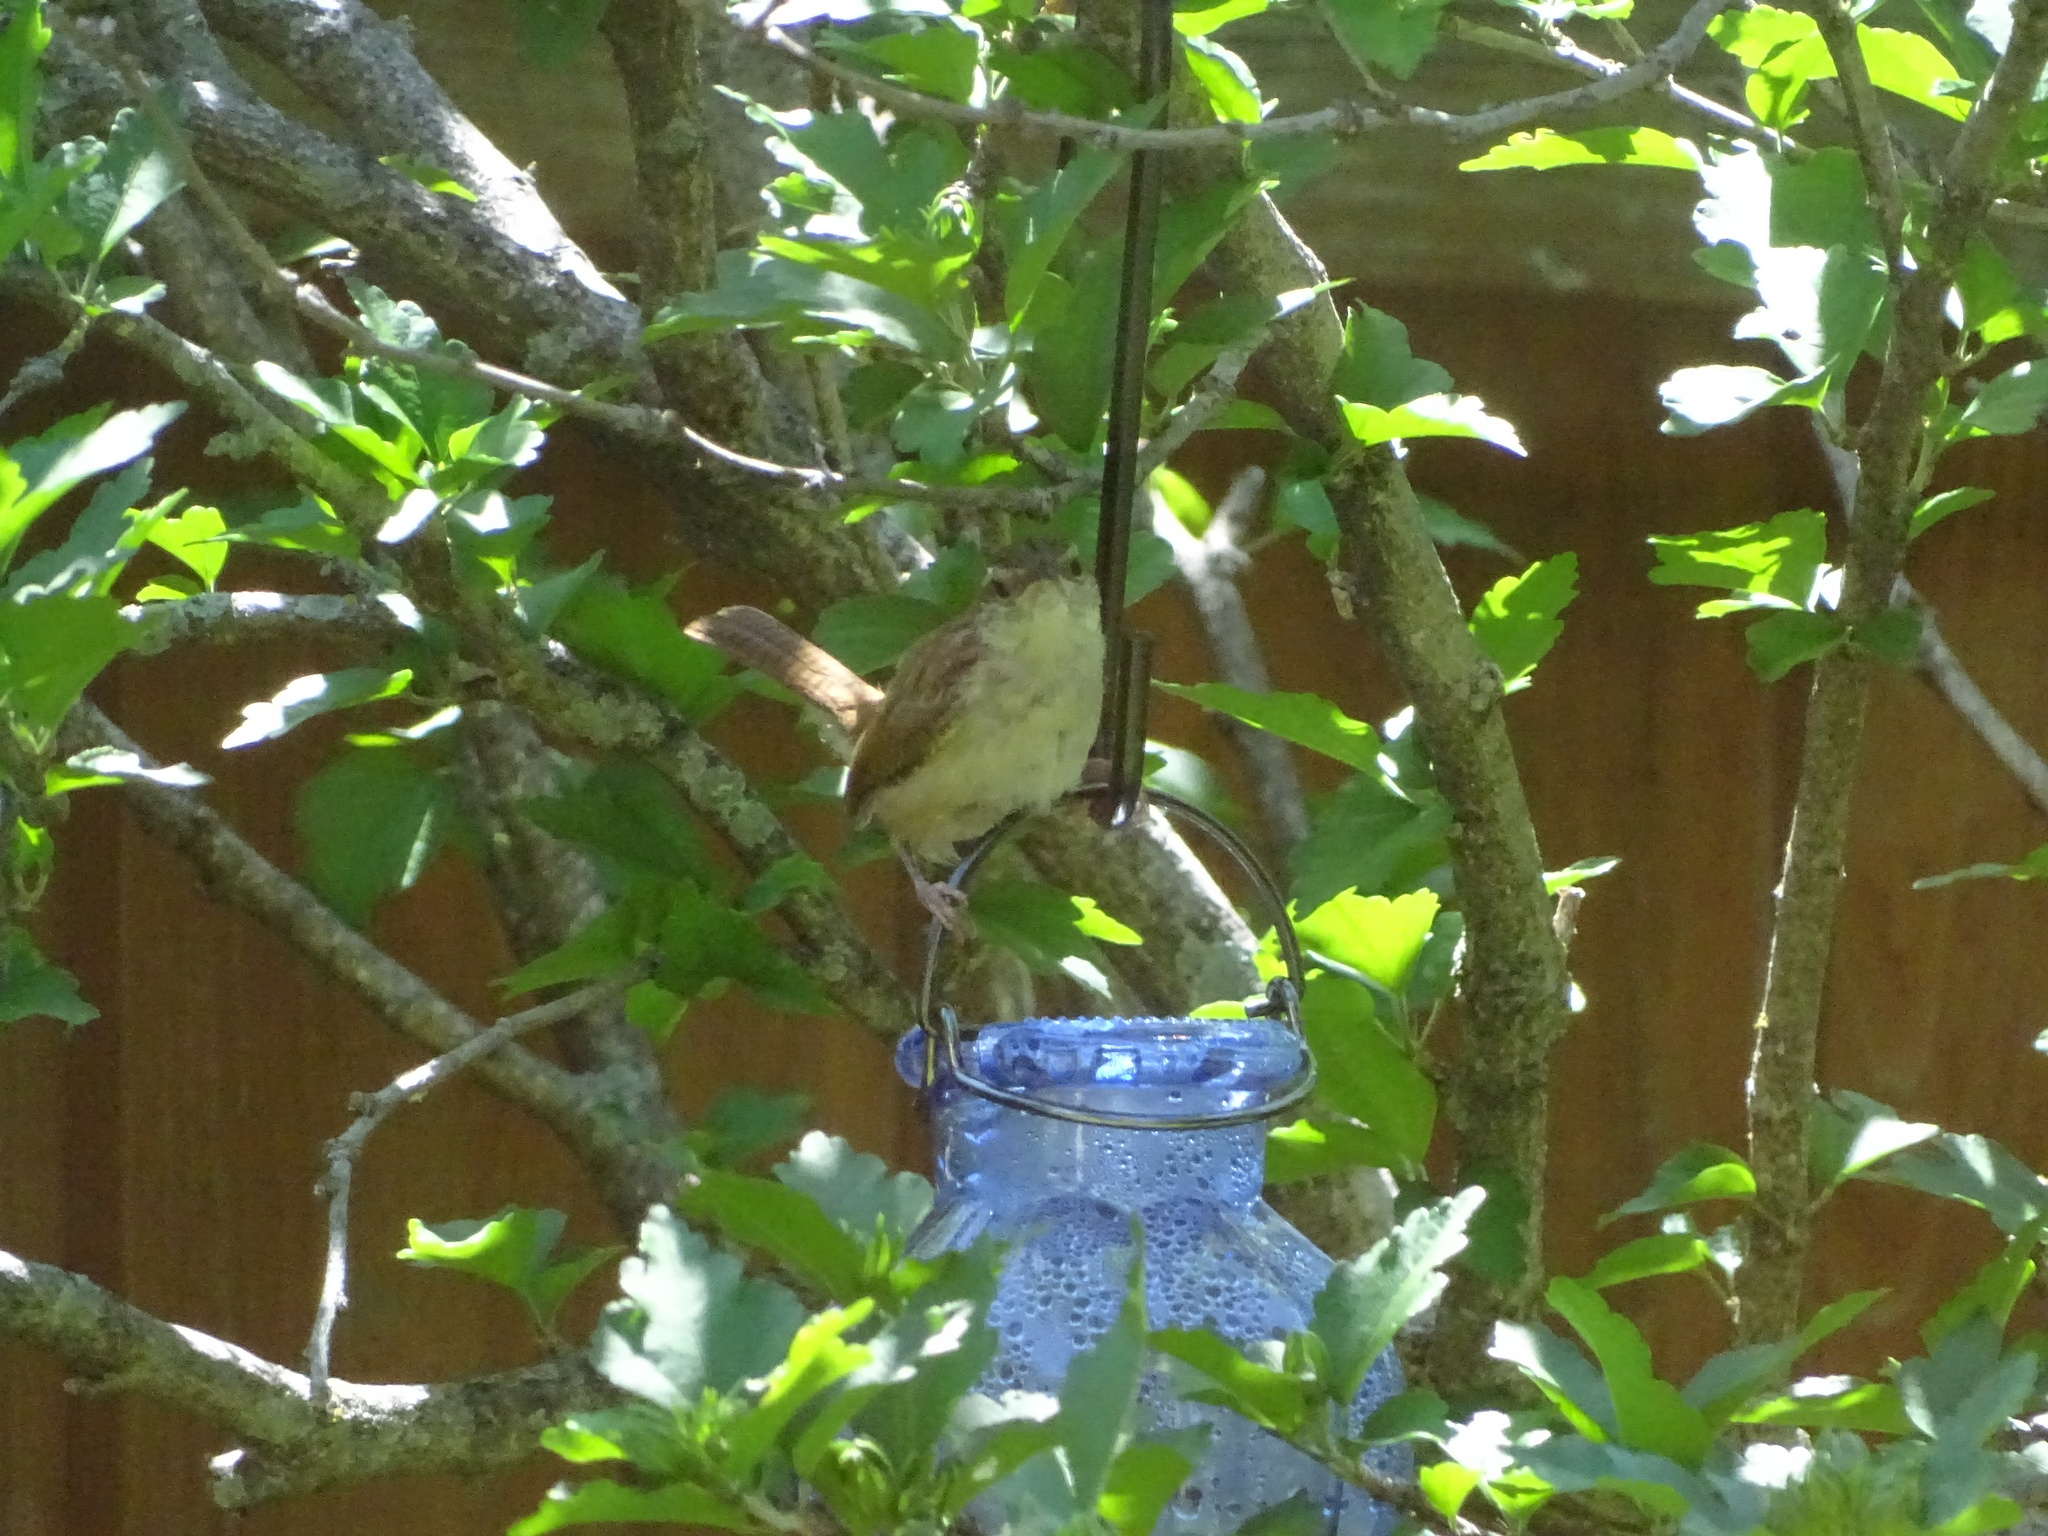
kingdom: Animalia
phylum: Chordata
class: Aves
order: Passeriformes
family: Troglodytidae
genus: Thryomanes
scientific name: Thryomanes bewickii
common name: Bewick's wren
